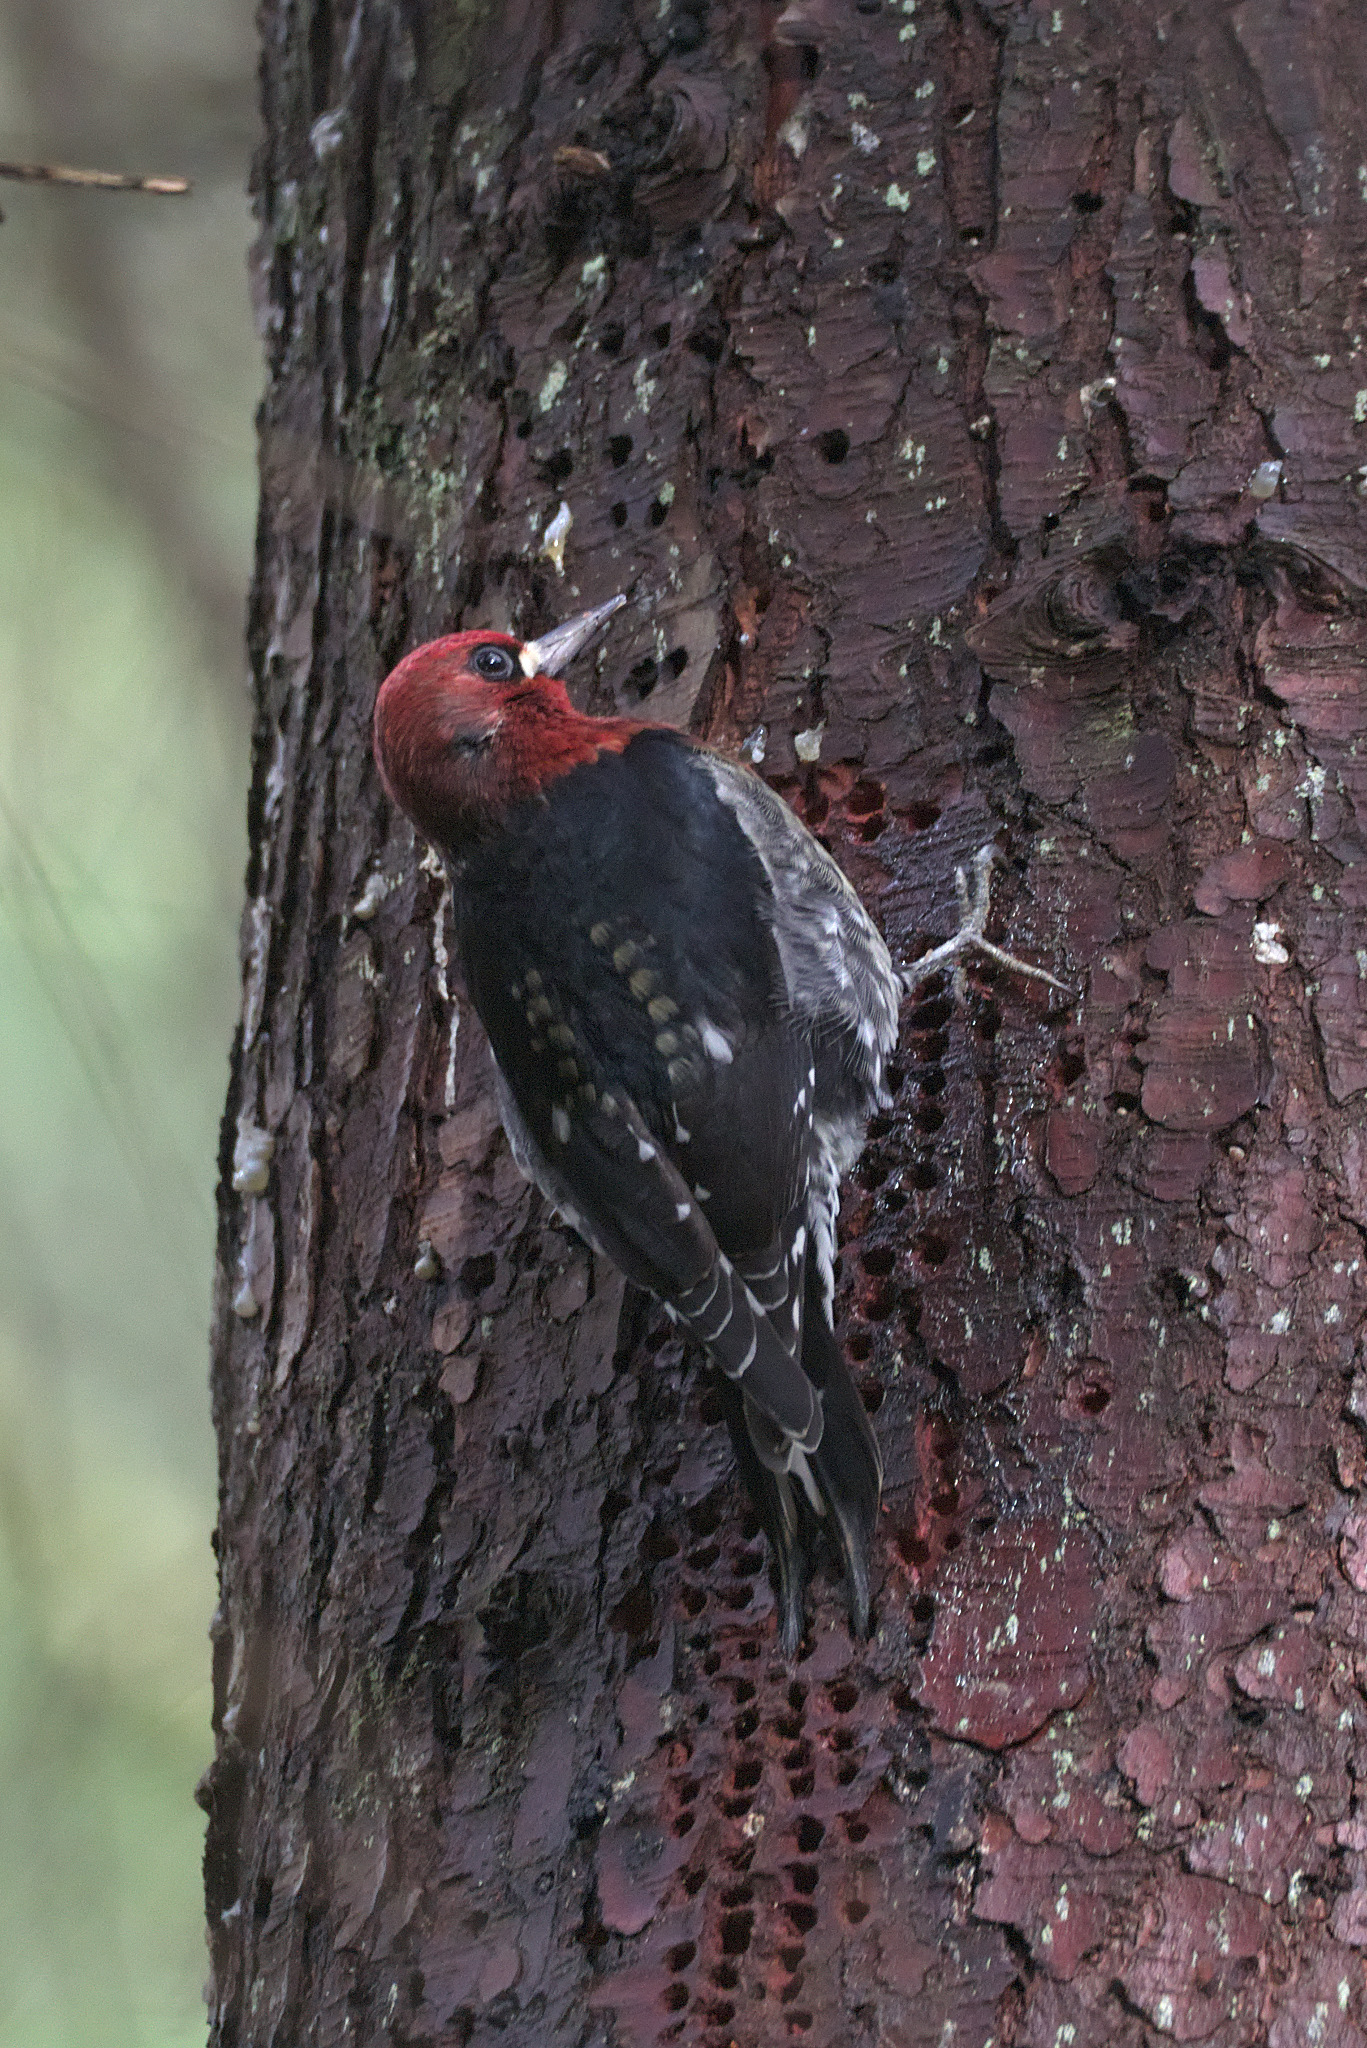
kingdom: Animalia
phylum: Chordata
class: Aves
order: Piciformes
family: Picidae
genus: Sphyrapicus
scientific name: Sphyrapicus ruber
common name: Red-breasted sapsucker
